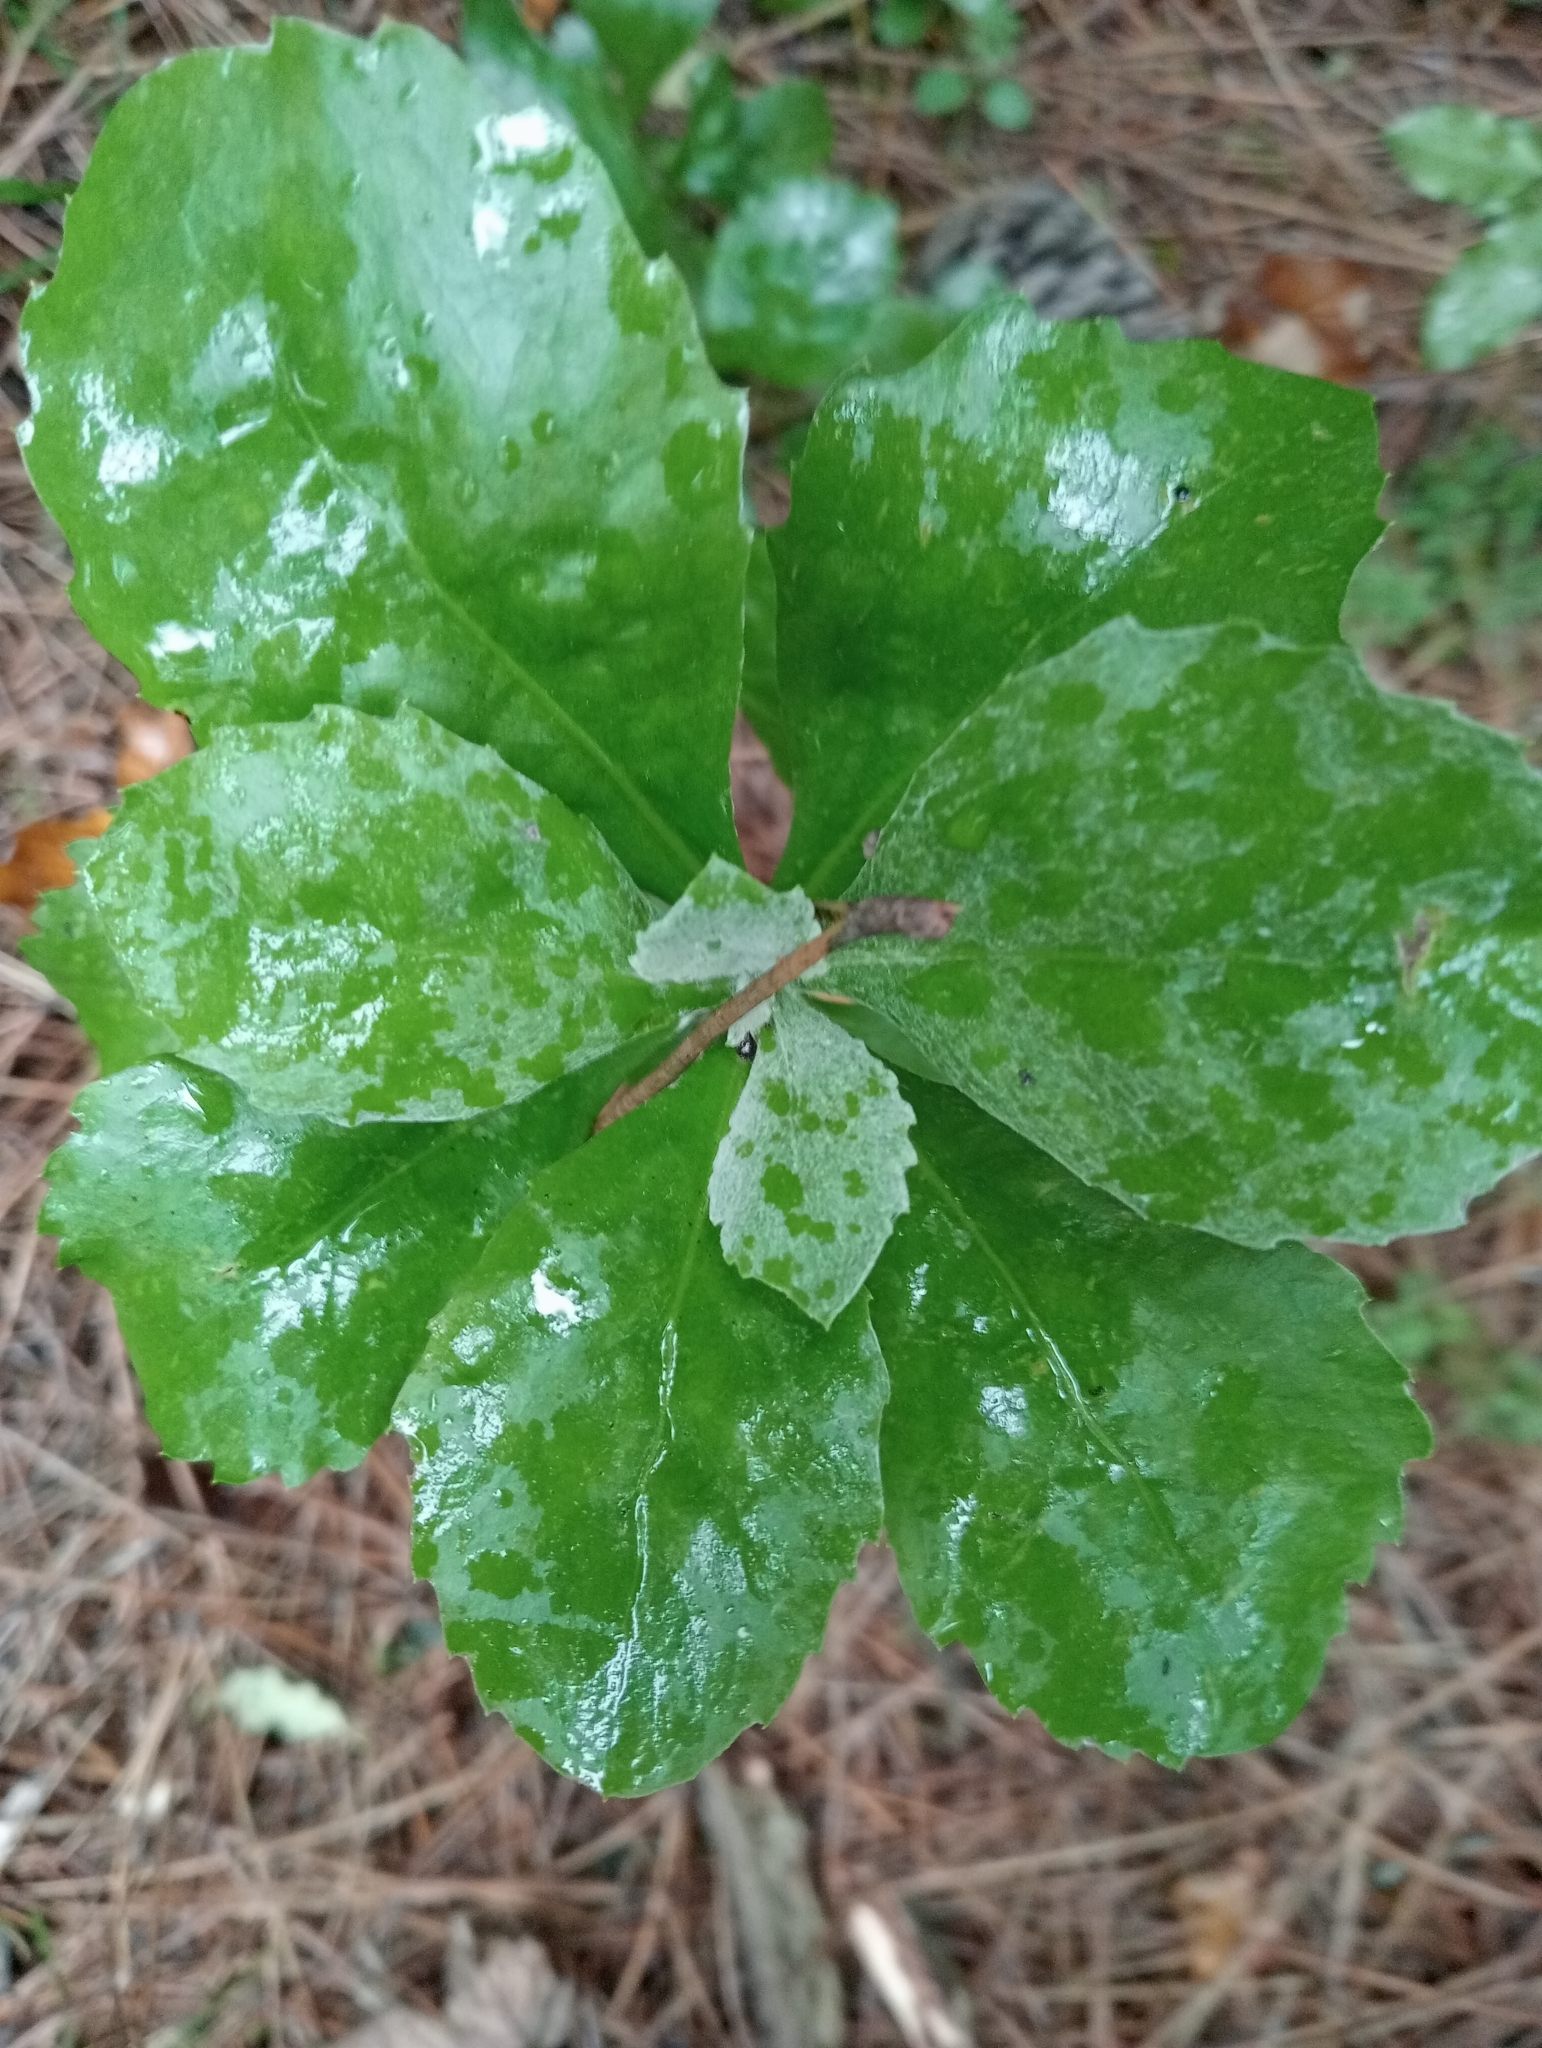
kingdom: Plantae
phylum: Tracheophyta
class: Magnoliopsida
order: Asterales
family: Asteraceae
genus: Osteospermum
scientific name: Osteospermum moniliferum
